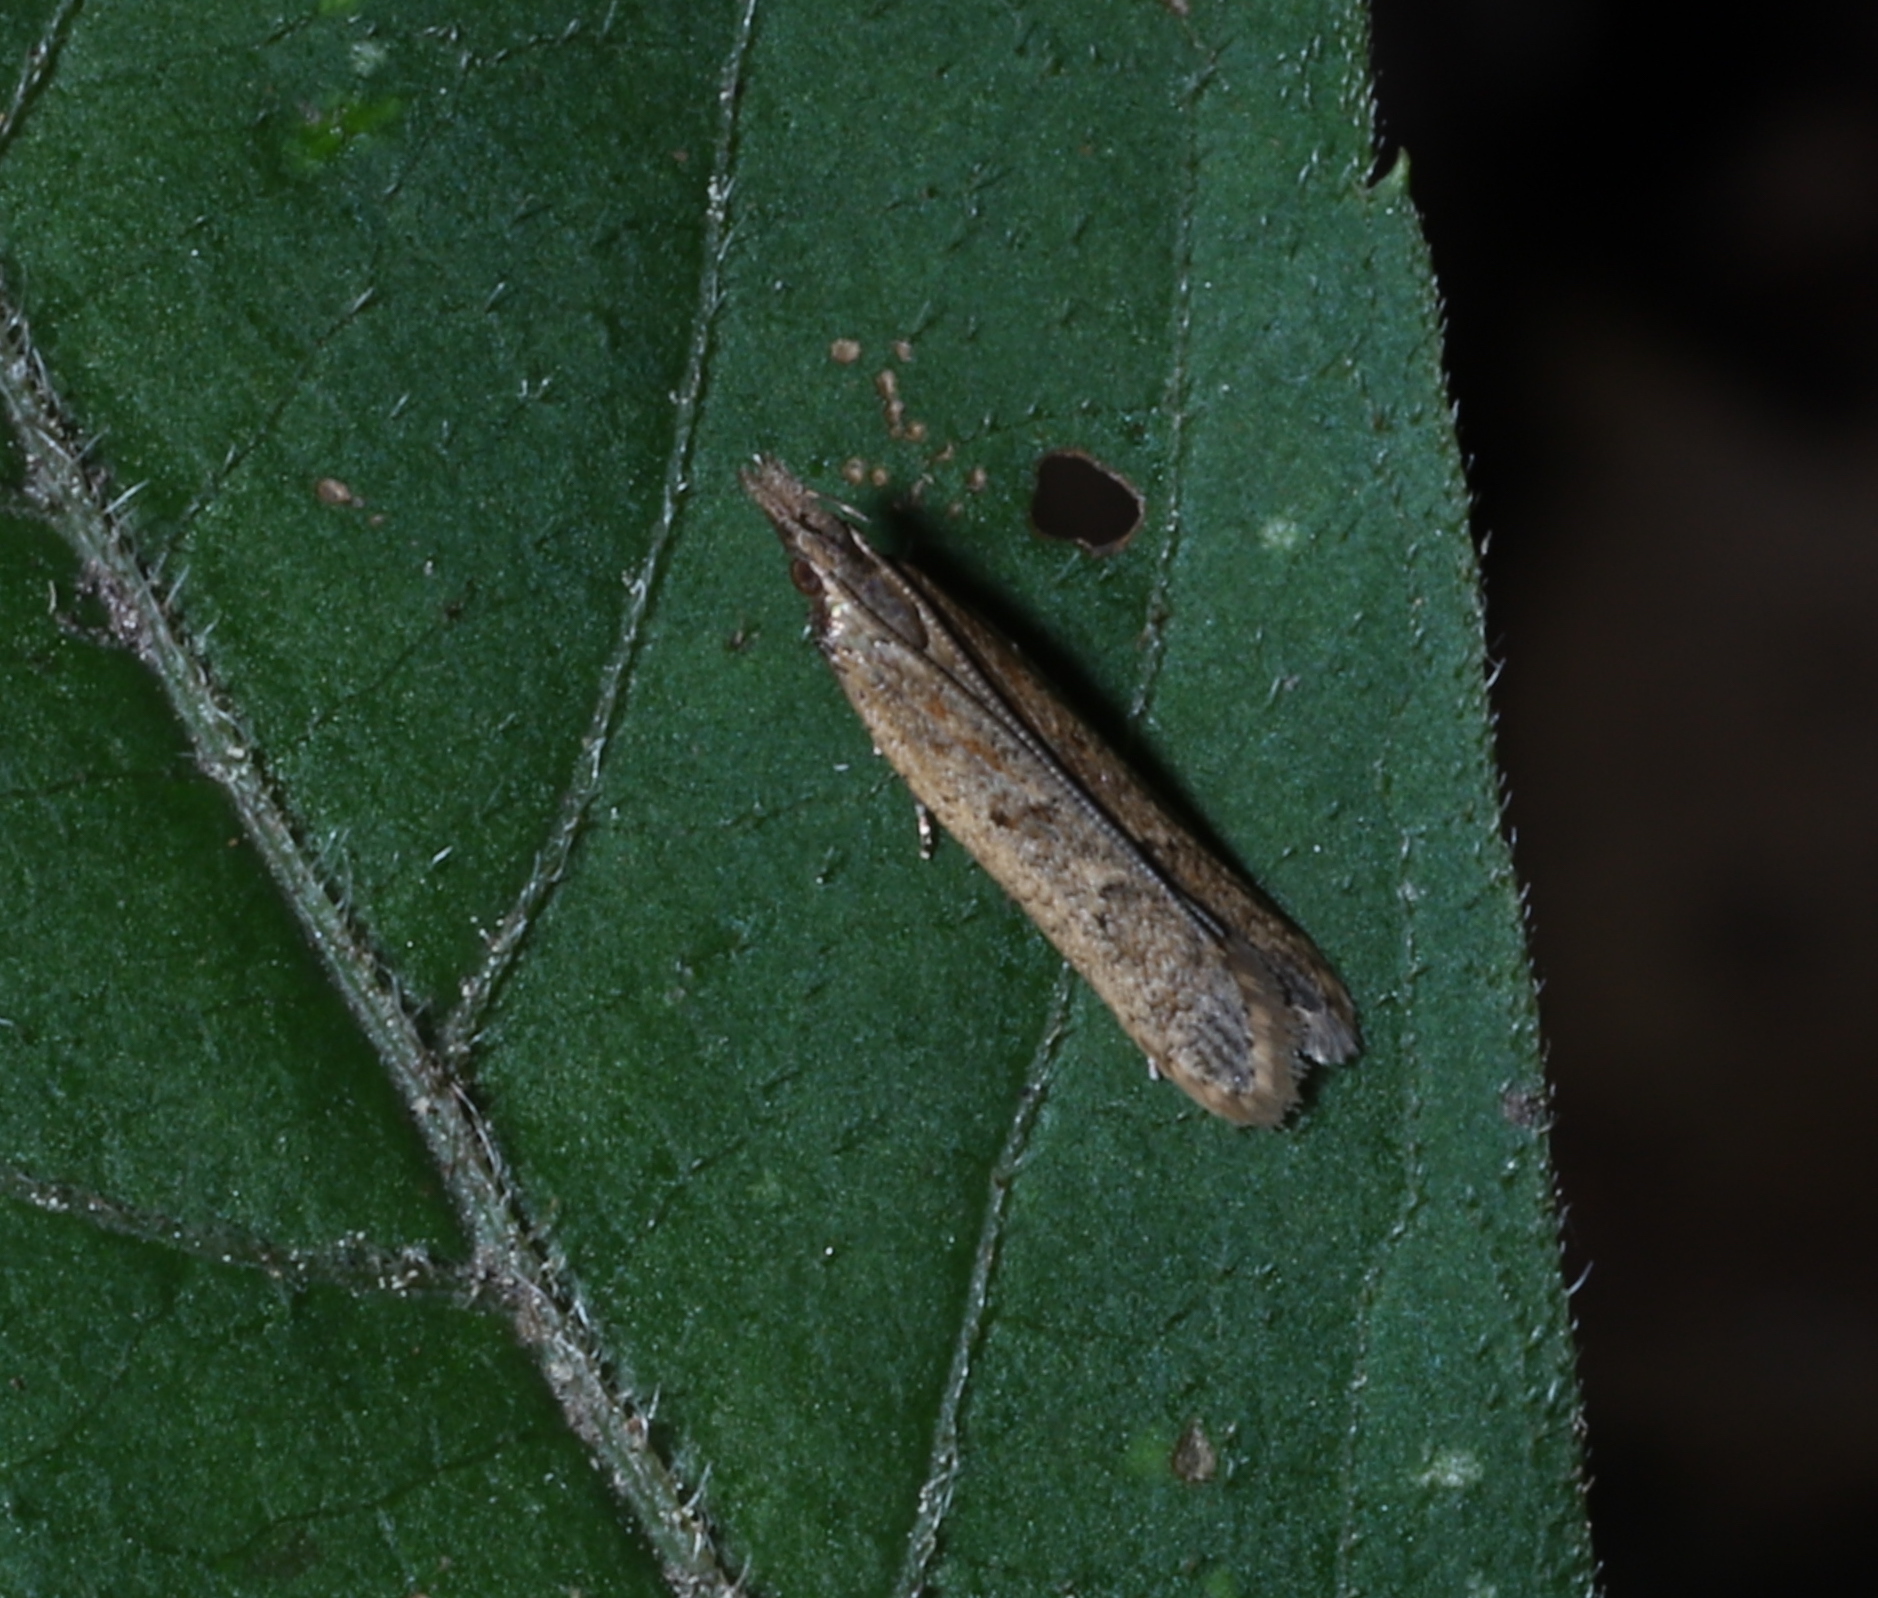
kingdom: Animalia
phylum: Arthropoda
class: Insecta
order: Lepidoptera
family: Gelechiidae
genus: Dichomeris
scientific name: Dichomeris ligulella
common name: Moth
